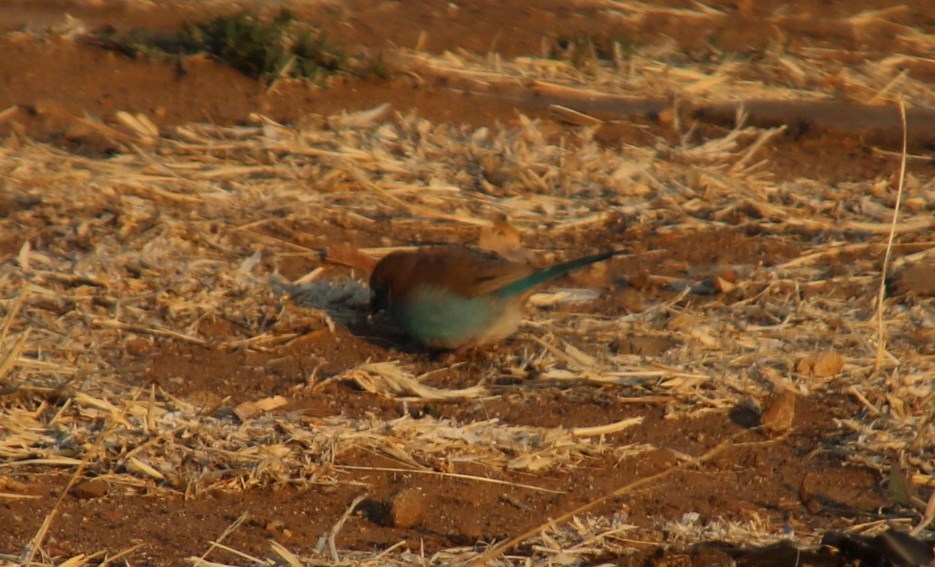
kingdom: Animalia
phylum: Chordata
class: Aves
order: Passeriformes
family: Estrildidae
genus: Uraeginthus
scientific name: Uraeginthus angolensis
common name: Blue waxbill
